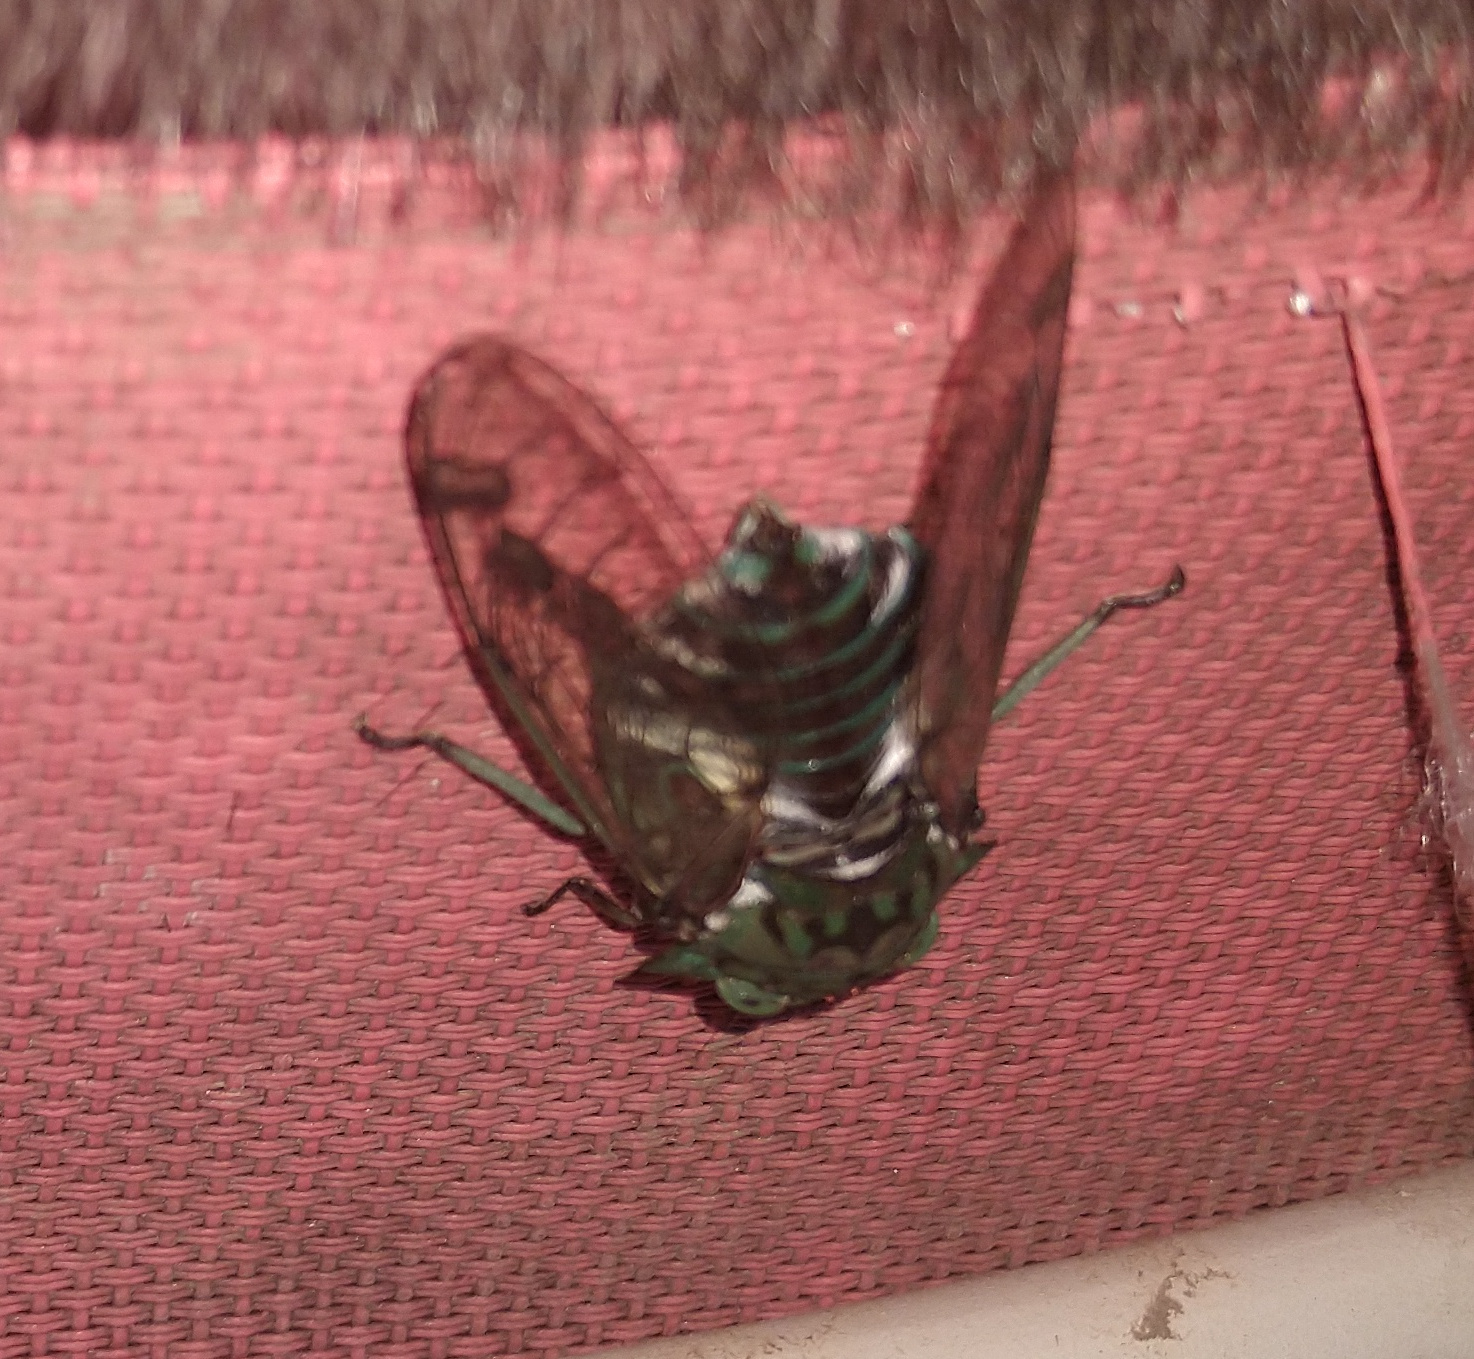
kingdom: Animalia
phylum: Arthropoda
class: Insecta
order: Hemiptera
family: Cicadidae
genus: Zammara
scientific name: Zammara tympanum
